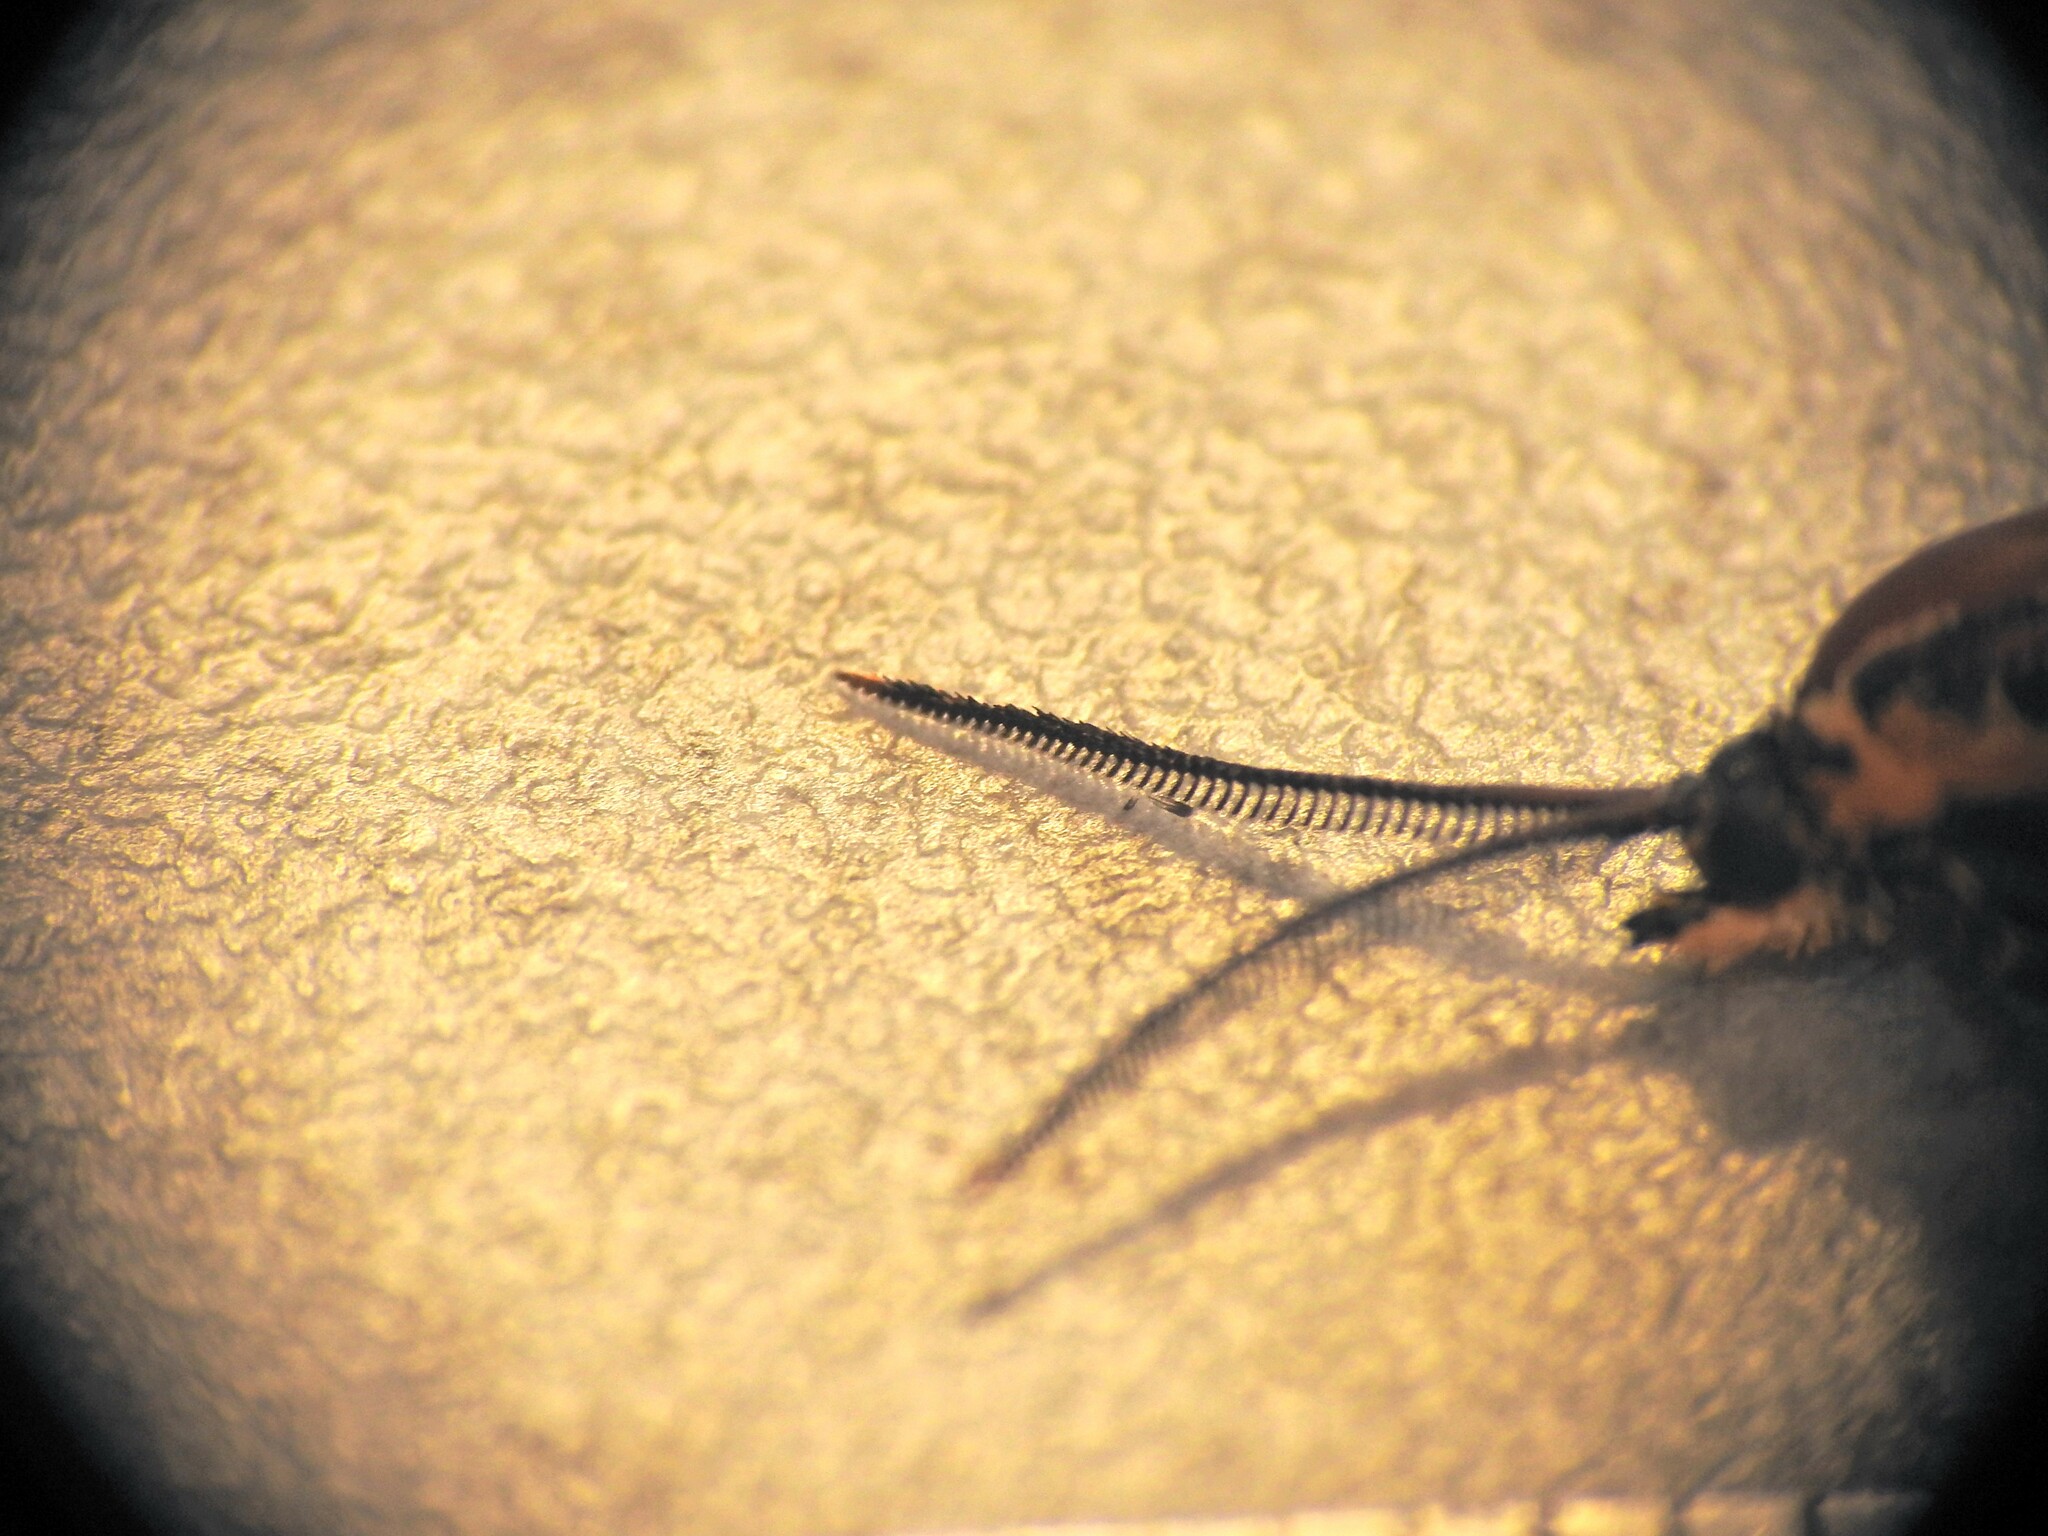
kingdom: Animalia
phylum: Arthropoda
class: Insecta
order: Lepidoptera
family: Brachodidae
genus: Miscera
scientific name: Miscera homotona
